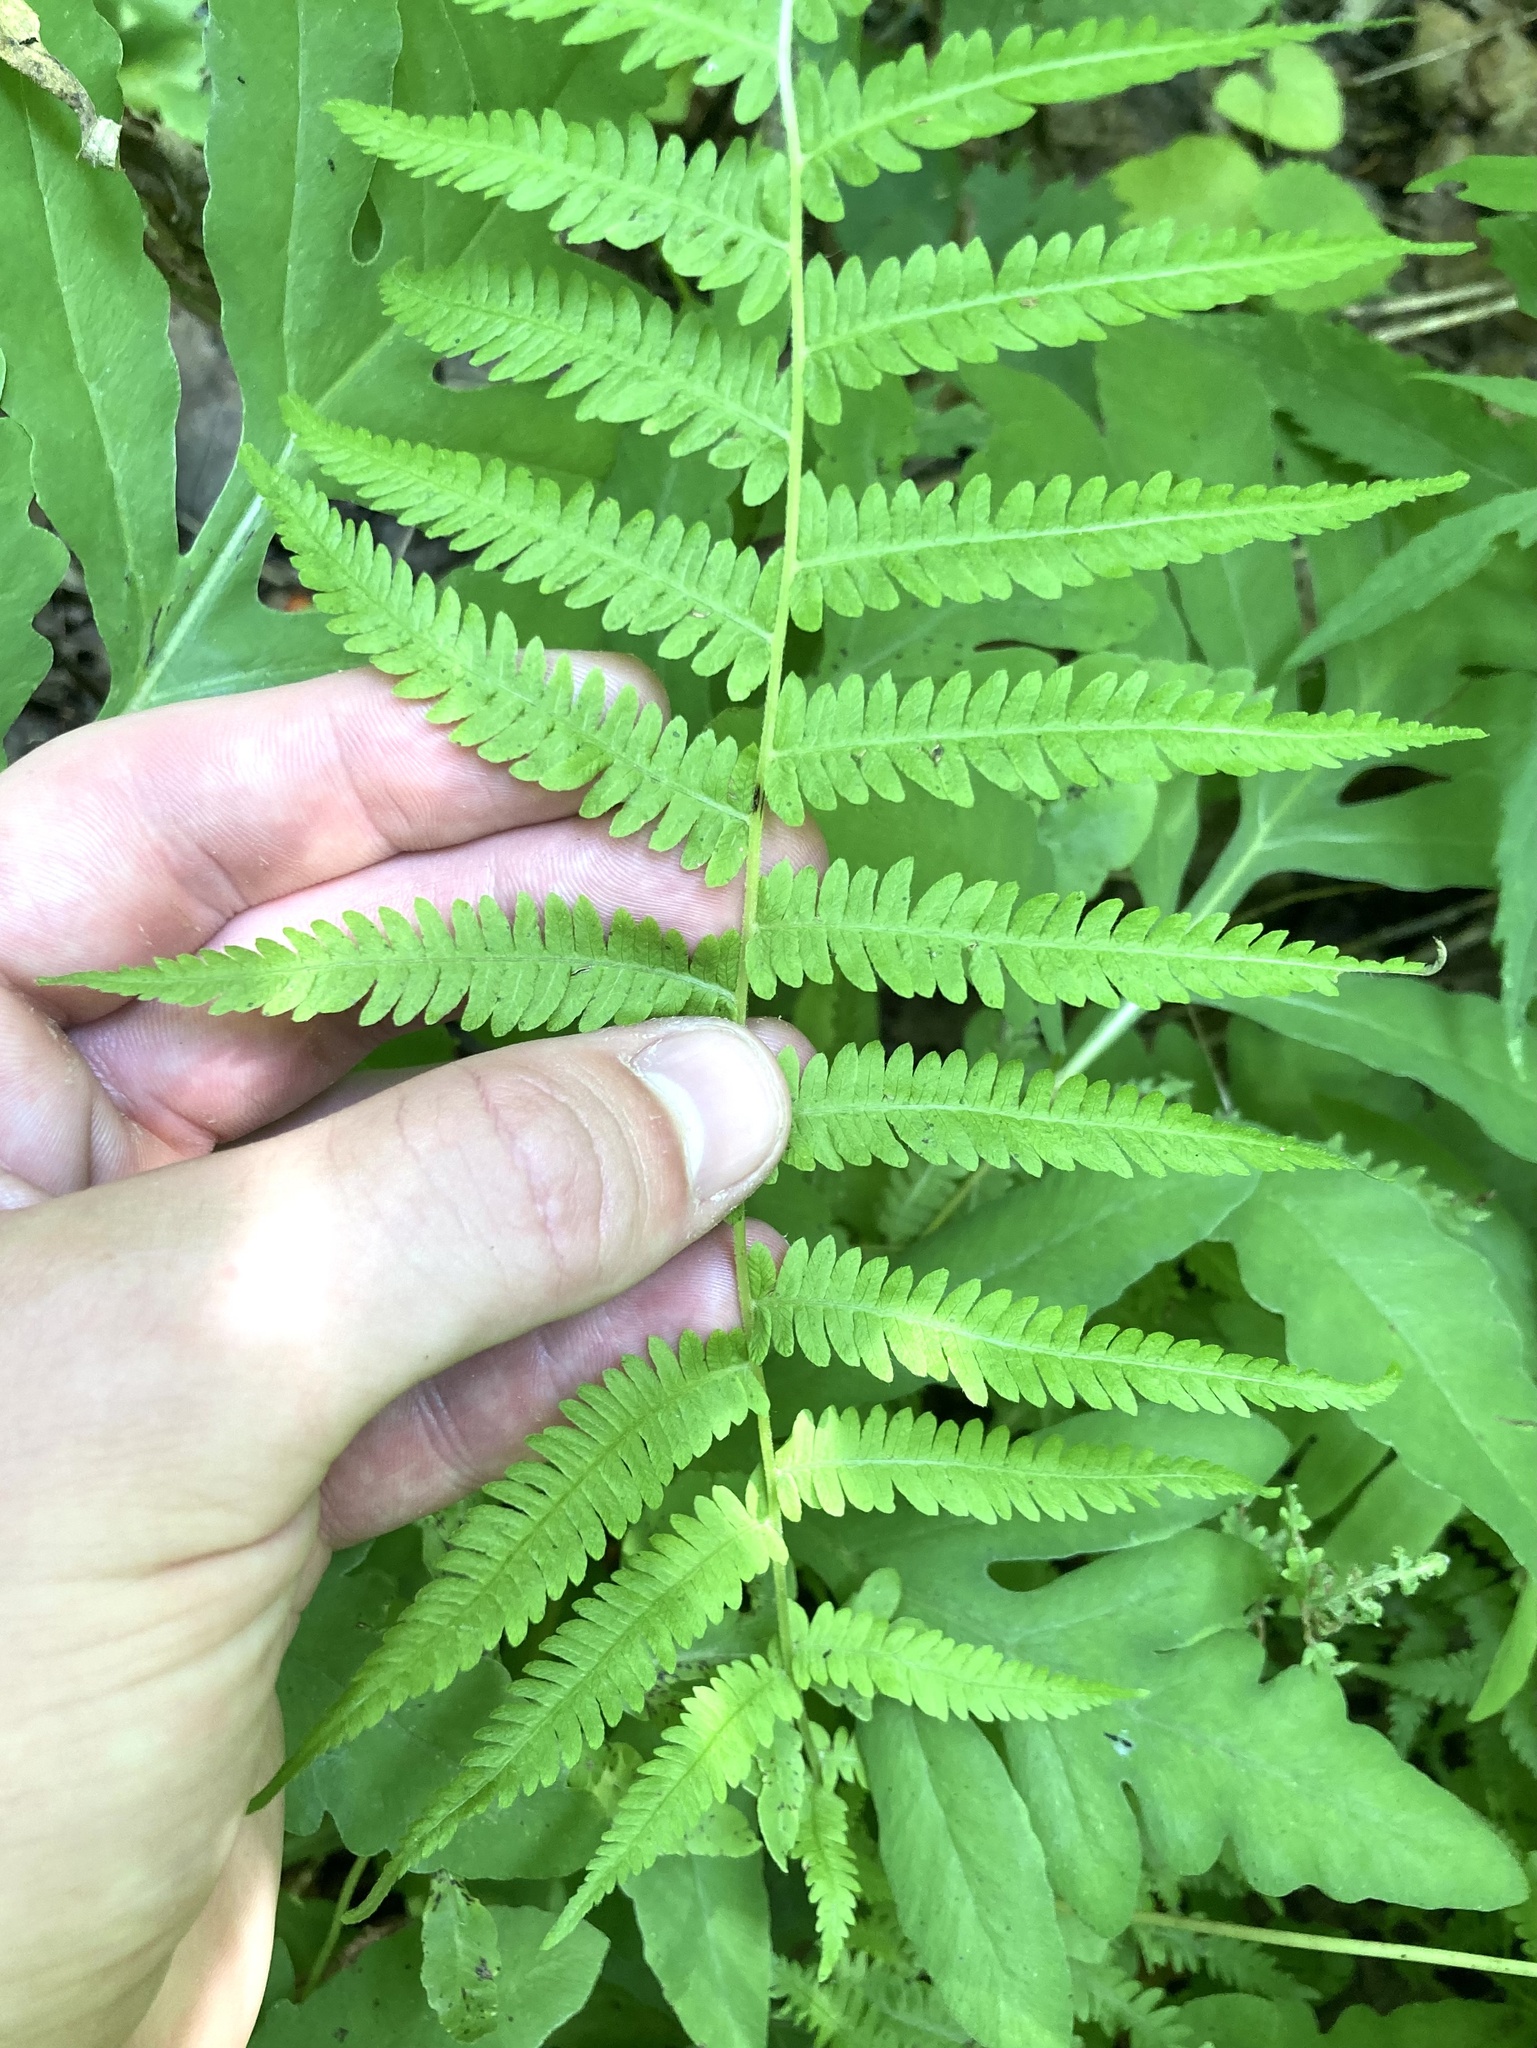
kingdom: Plantae
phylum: Tracheophyta
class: Polypodiopsida
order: Polypodiales
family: Thelypteridaceae
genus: Amauropelta
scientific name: Amauropelta noveboracensis
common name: New york fern
